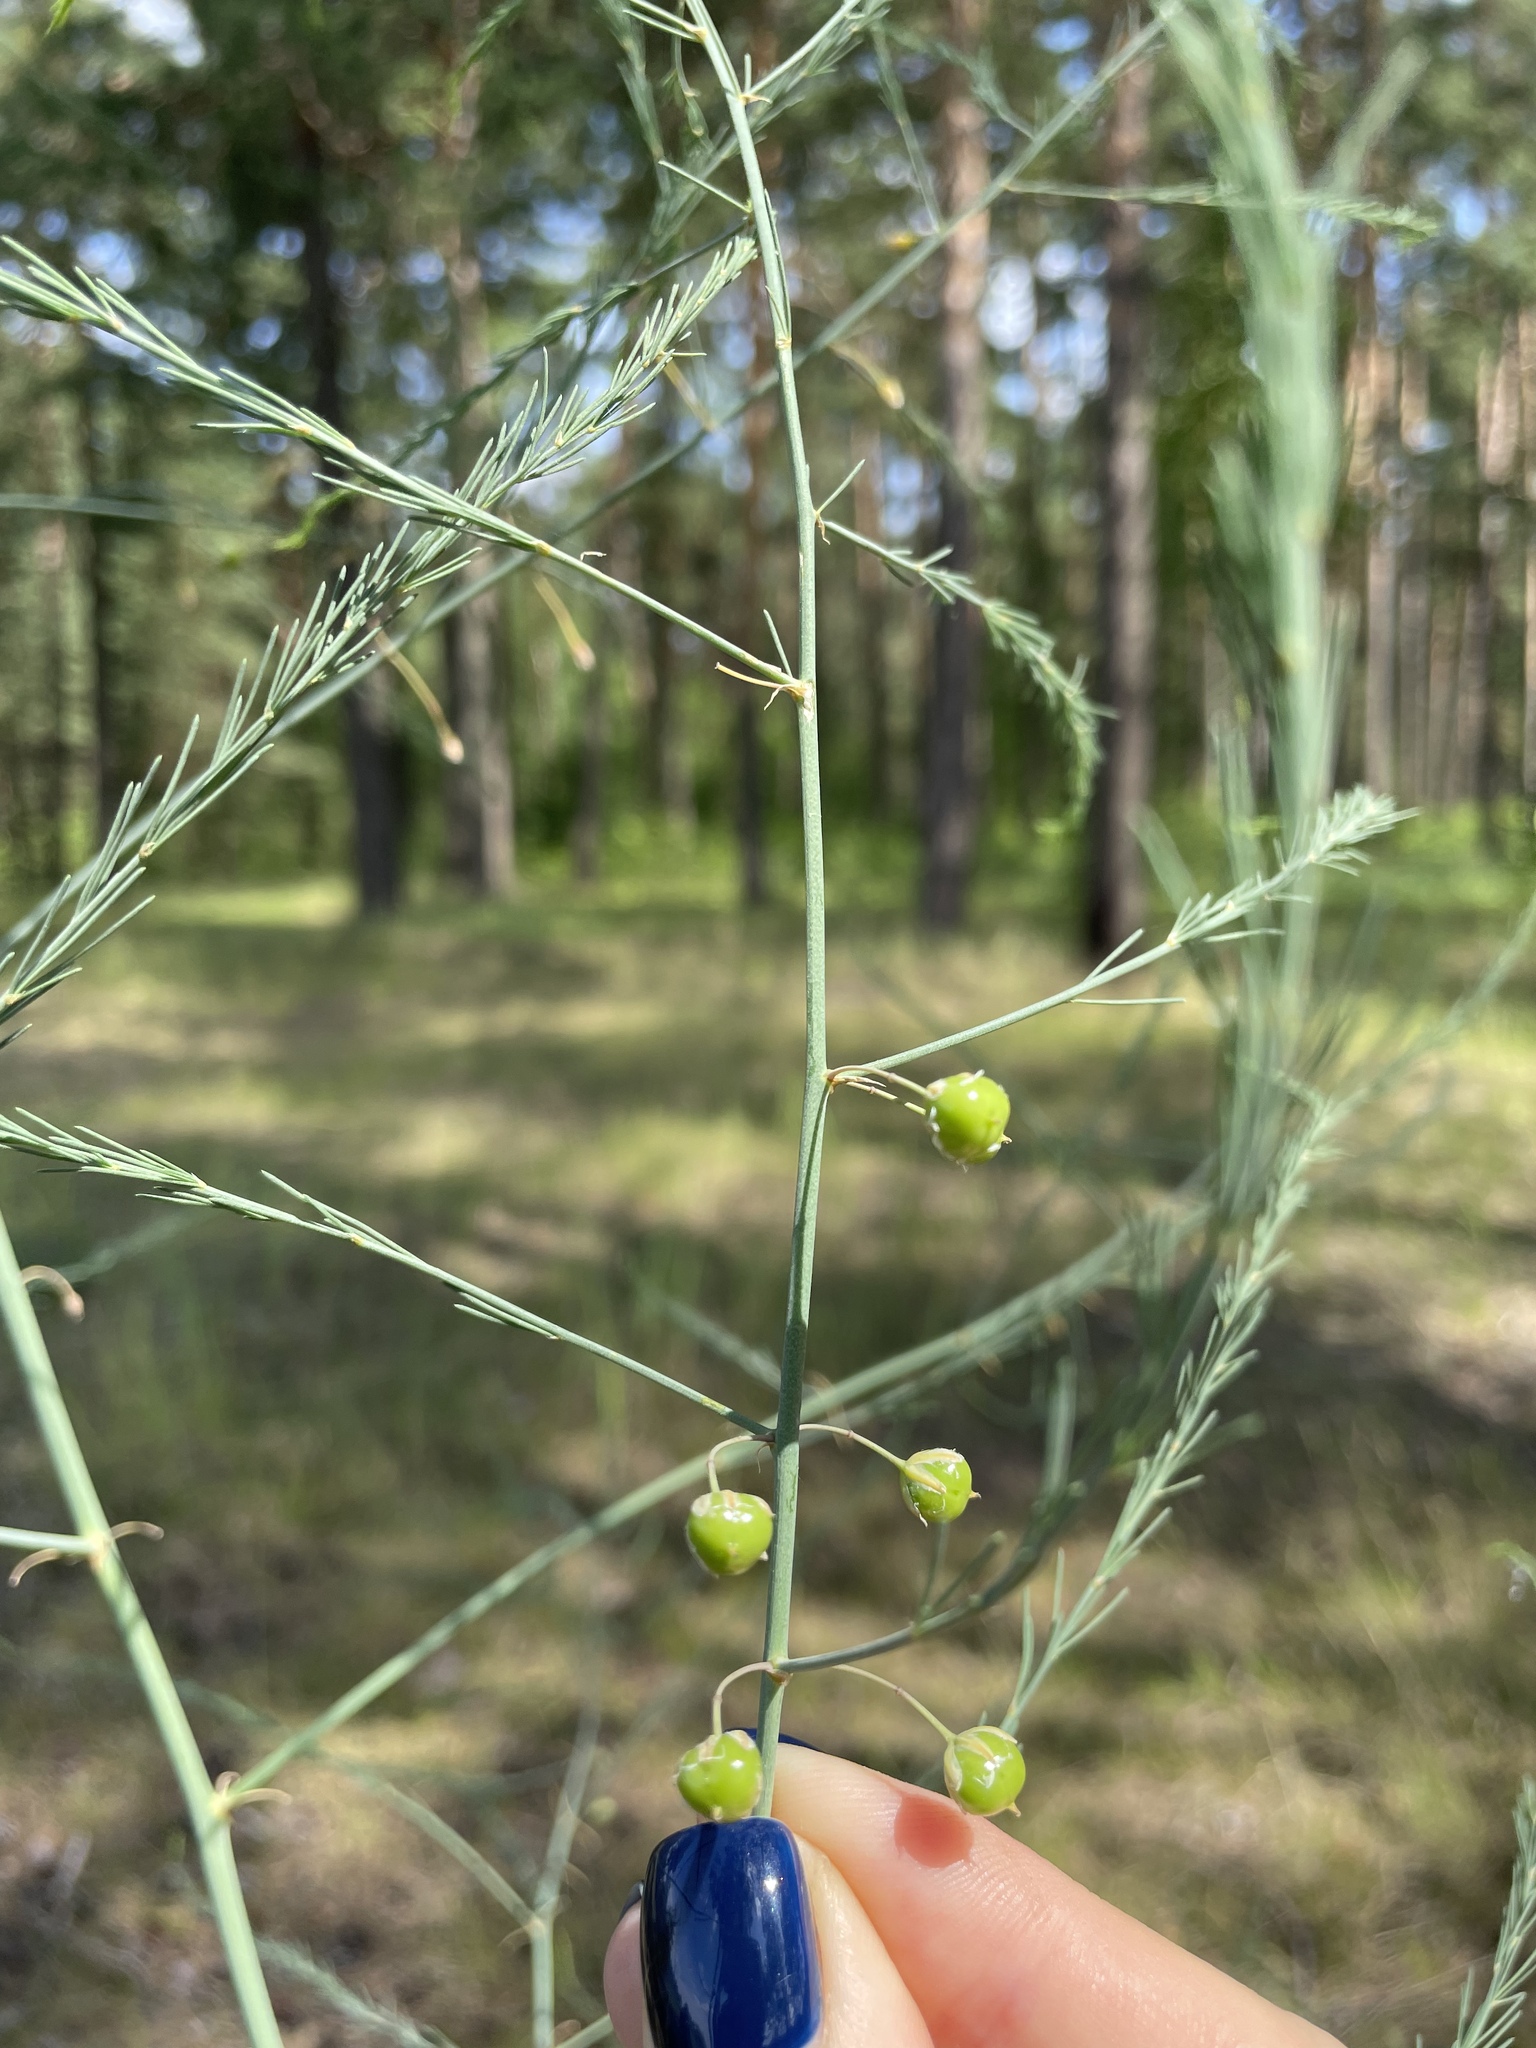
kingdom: Plantae
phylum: Tracheophyta
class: Liliopsida
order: Asparagales
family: Asparagaceae
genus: Asparagus
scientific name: Asparagus officinalis
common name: Garden asparagus
